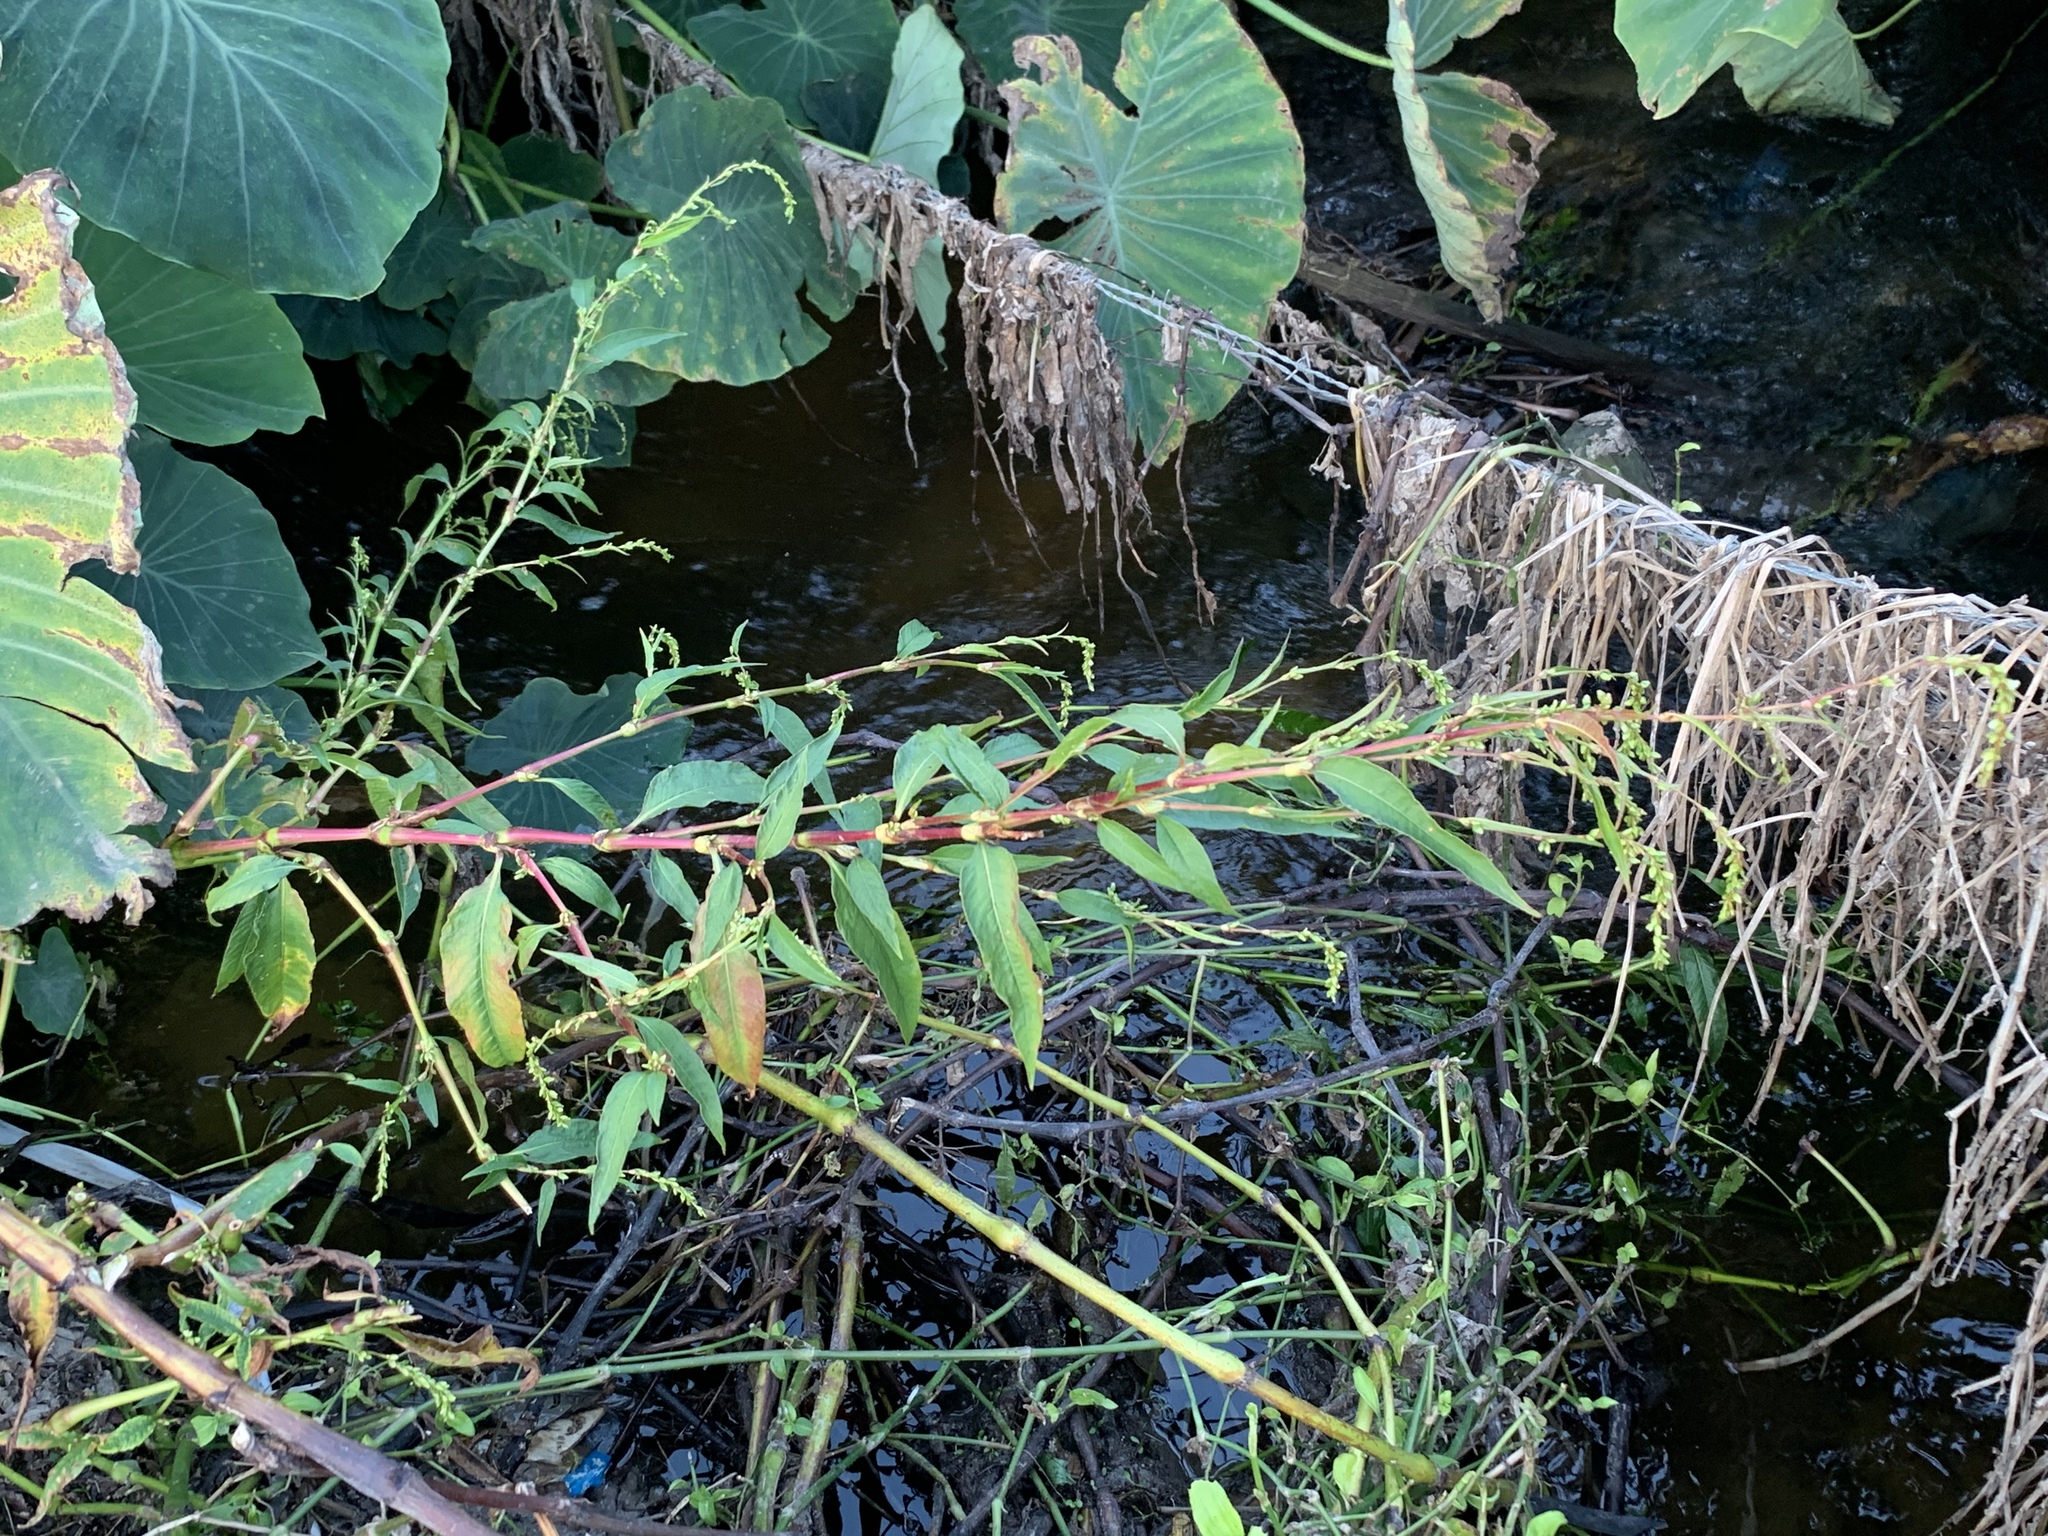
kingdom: Plantae
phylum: Tracheophyta
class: Magnoliopsida
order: Caryophyllales
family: Polygonaceae
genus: Persicaria
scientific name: Persicaria hydropiper
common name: Water-pepper
